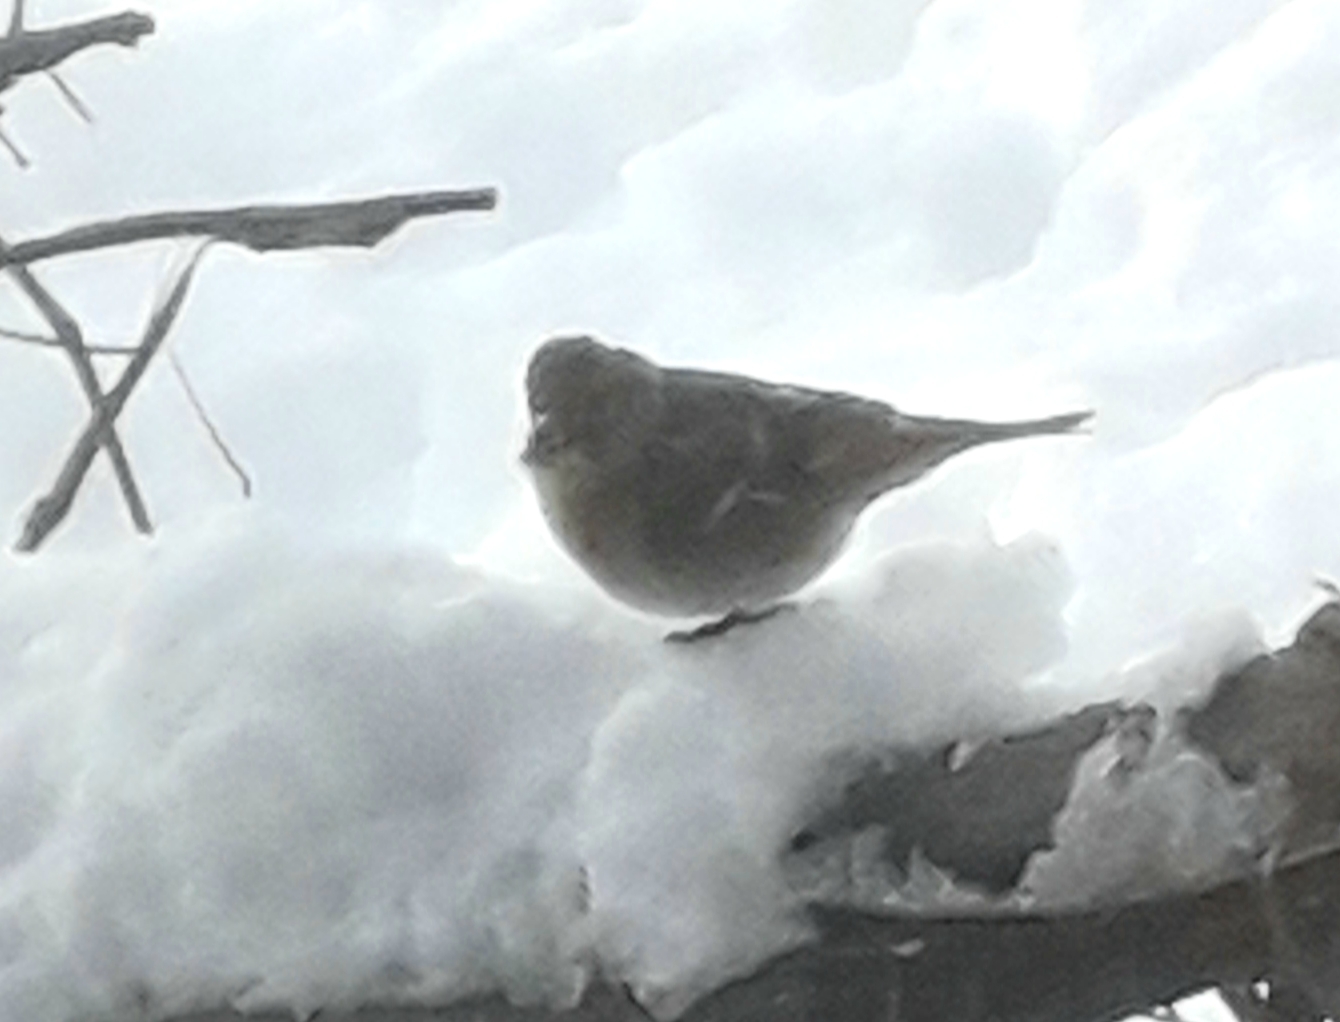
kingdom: Animalia
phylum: Chordata
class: Aves
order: Passeriformes
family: Fringillidae
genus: Fringilla
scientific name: Fringilla montifringilla
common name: Brambling
